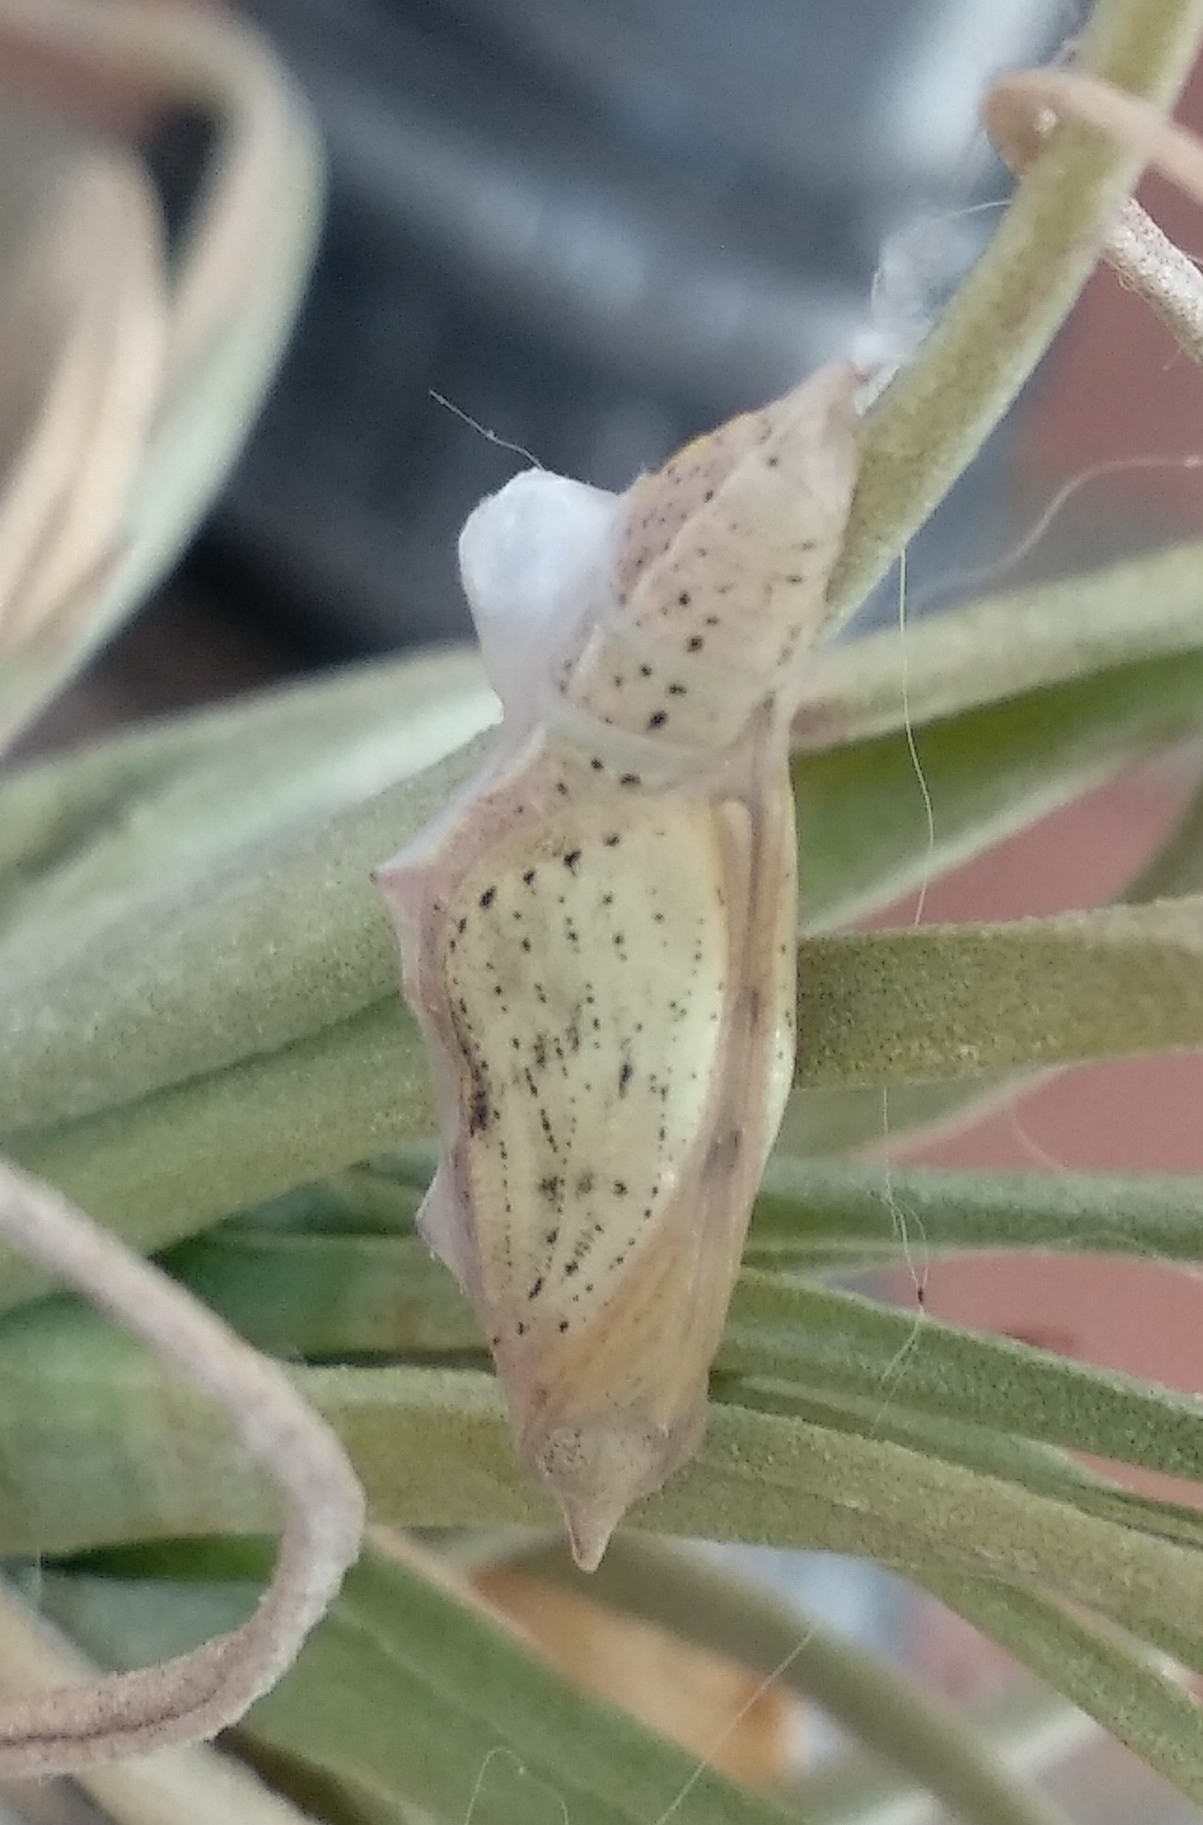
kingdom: Animalia
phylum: Arthropoda
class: Insecta
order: Lepidoptera
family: Pieridae
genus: Pieris
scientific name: Pieris rapae
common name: Small white
